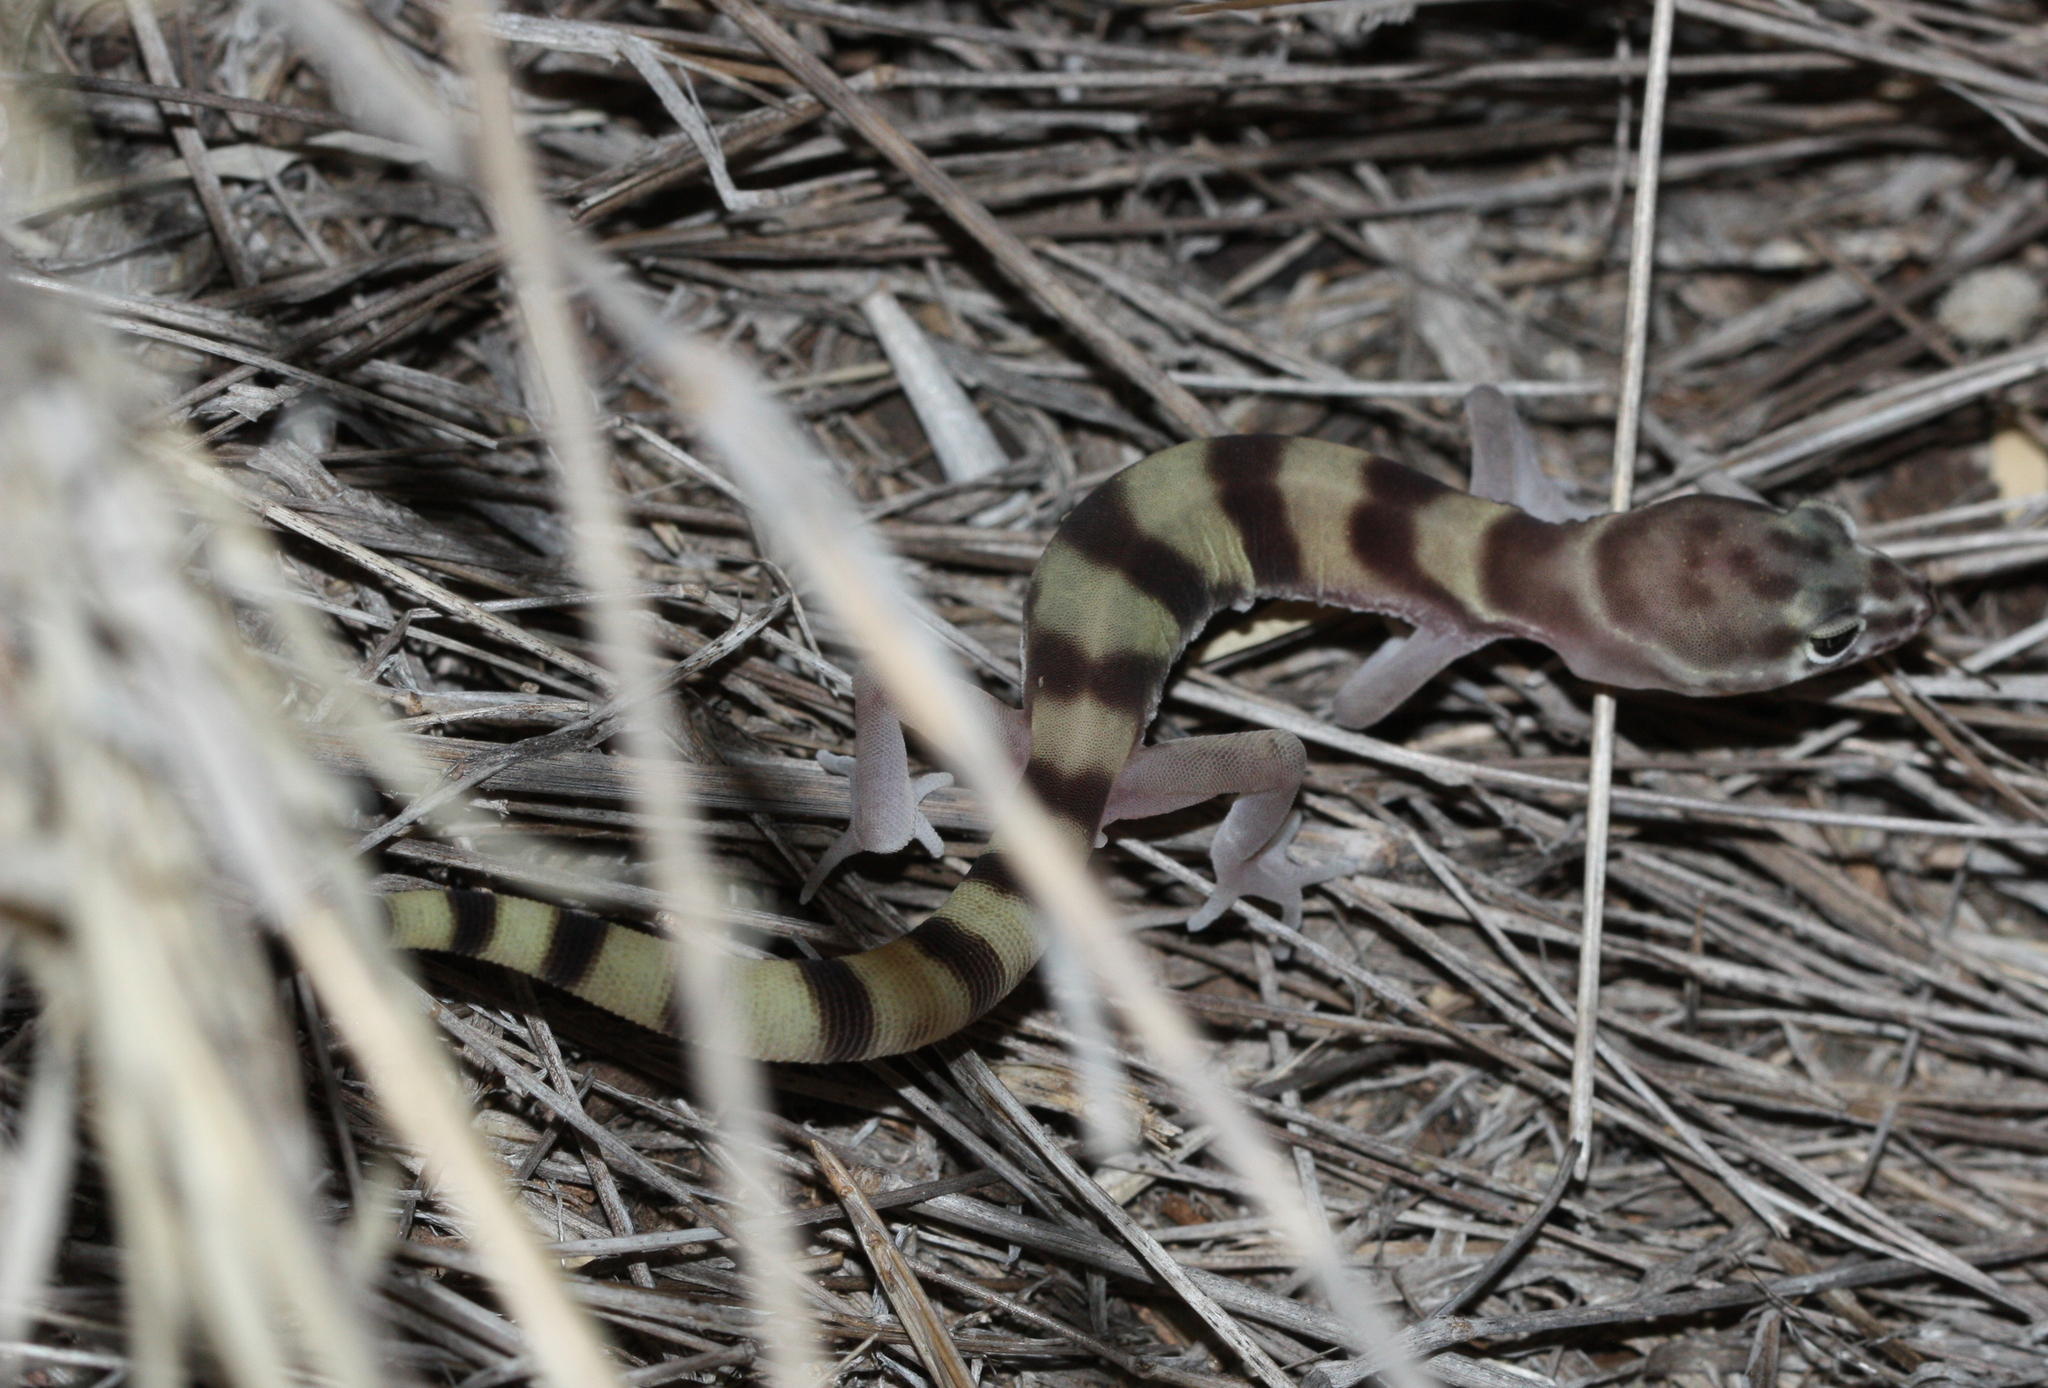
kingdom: Animalia
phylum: Chordata
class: Squamata
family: Eublepharidae
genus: Coleonyx
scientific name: Coleonyx variegatus
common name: Western banded gecko
